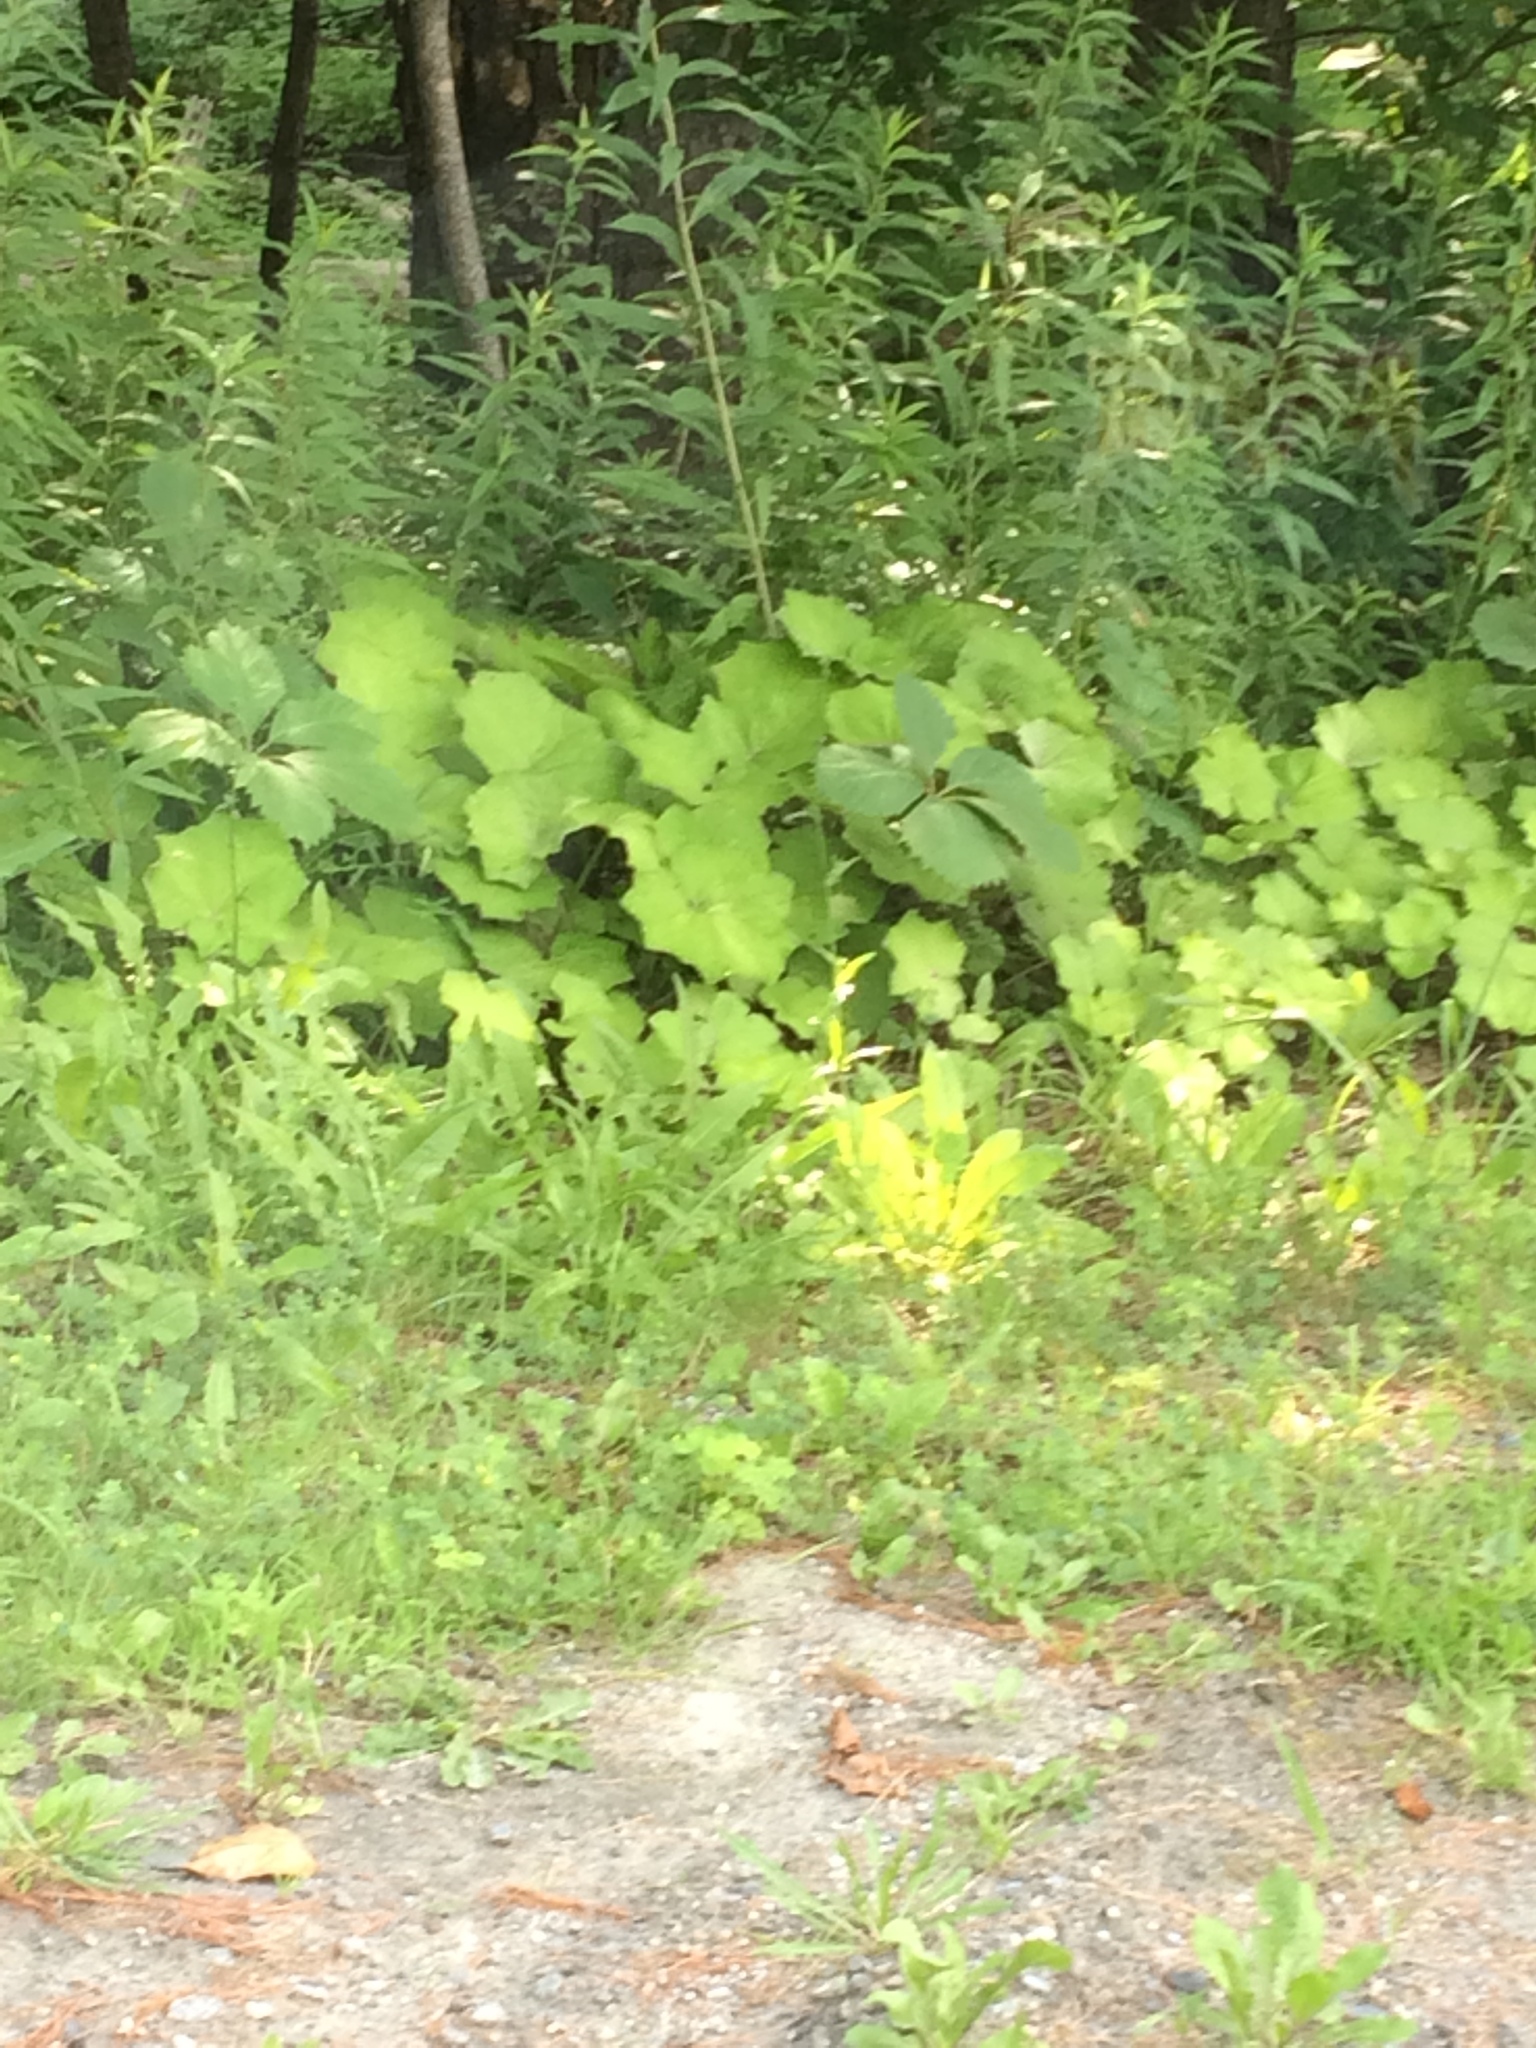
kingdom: Plantae
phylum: Tracheophyta
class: Magnoliopsida
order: Asterales
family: Asteraceae
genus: Tussilago
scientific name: Tussilago farfara
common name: Coltsfoot
